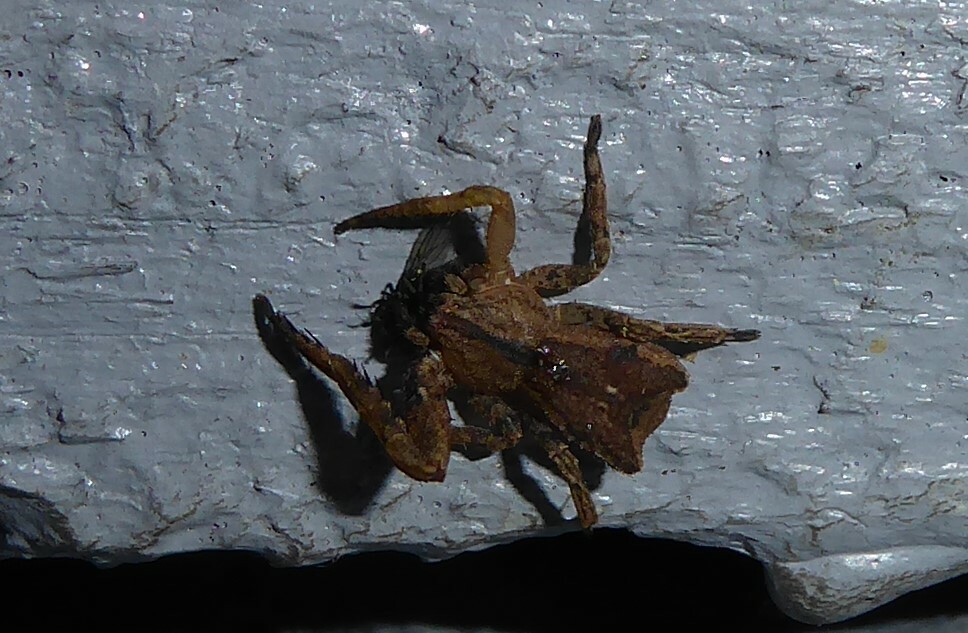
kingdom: Animalia
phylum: Arthropoda
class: Arachnida
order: Araneae
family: Thomisidae
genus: Sidymella
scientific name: Sidymella angularis
